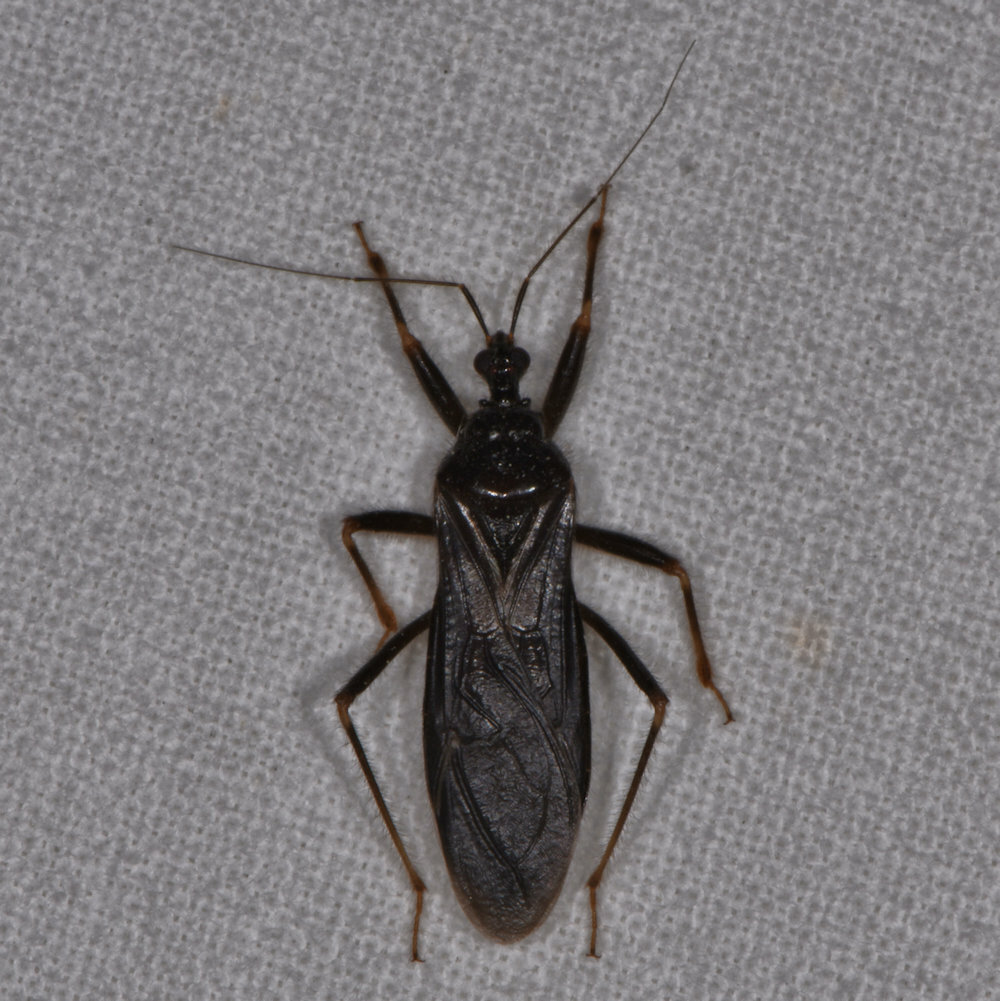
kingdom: Animalia
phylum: Arthropoda
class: Insecta
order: Hemiptera
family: Reduviidae
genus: Reduvius
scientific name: Reduvius personatus
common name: Masked hunter
